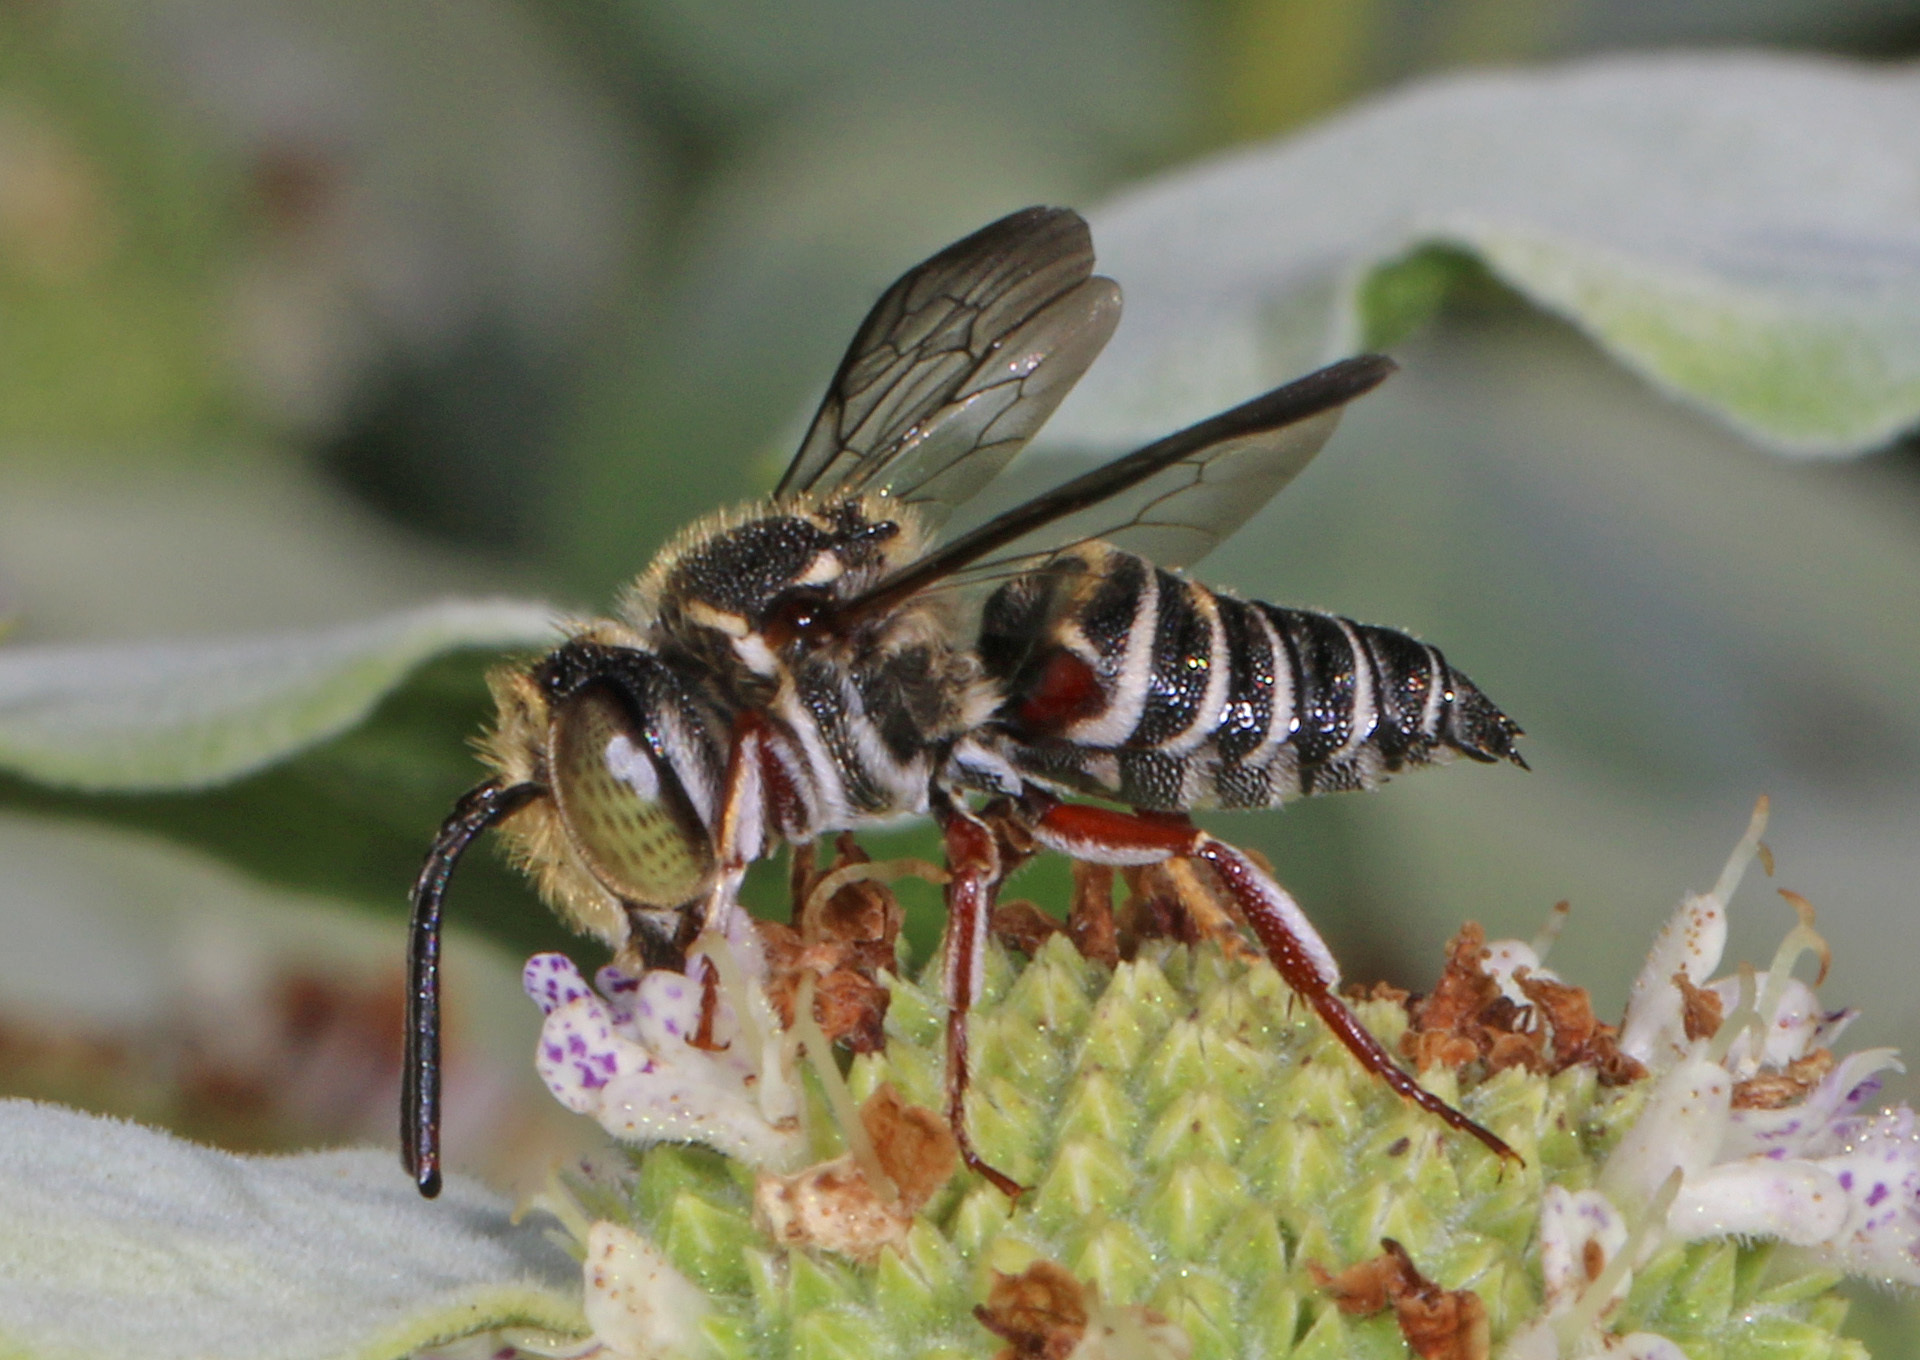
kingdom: Animalia
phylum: Arthropoda
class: Insecta
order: Hymenoptera
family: Megachilidae
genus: Coelioxys
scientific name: Coelioxys germanus
